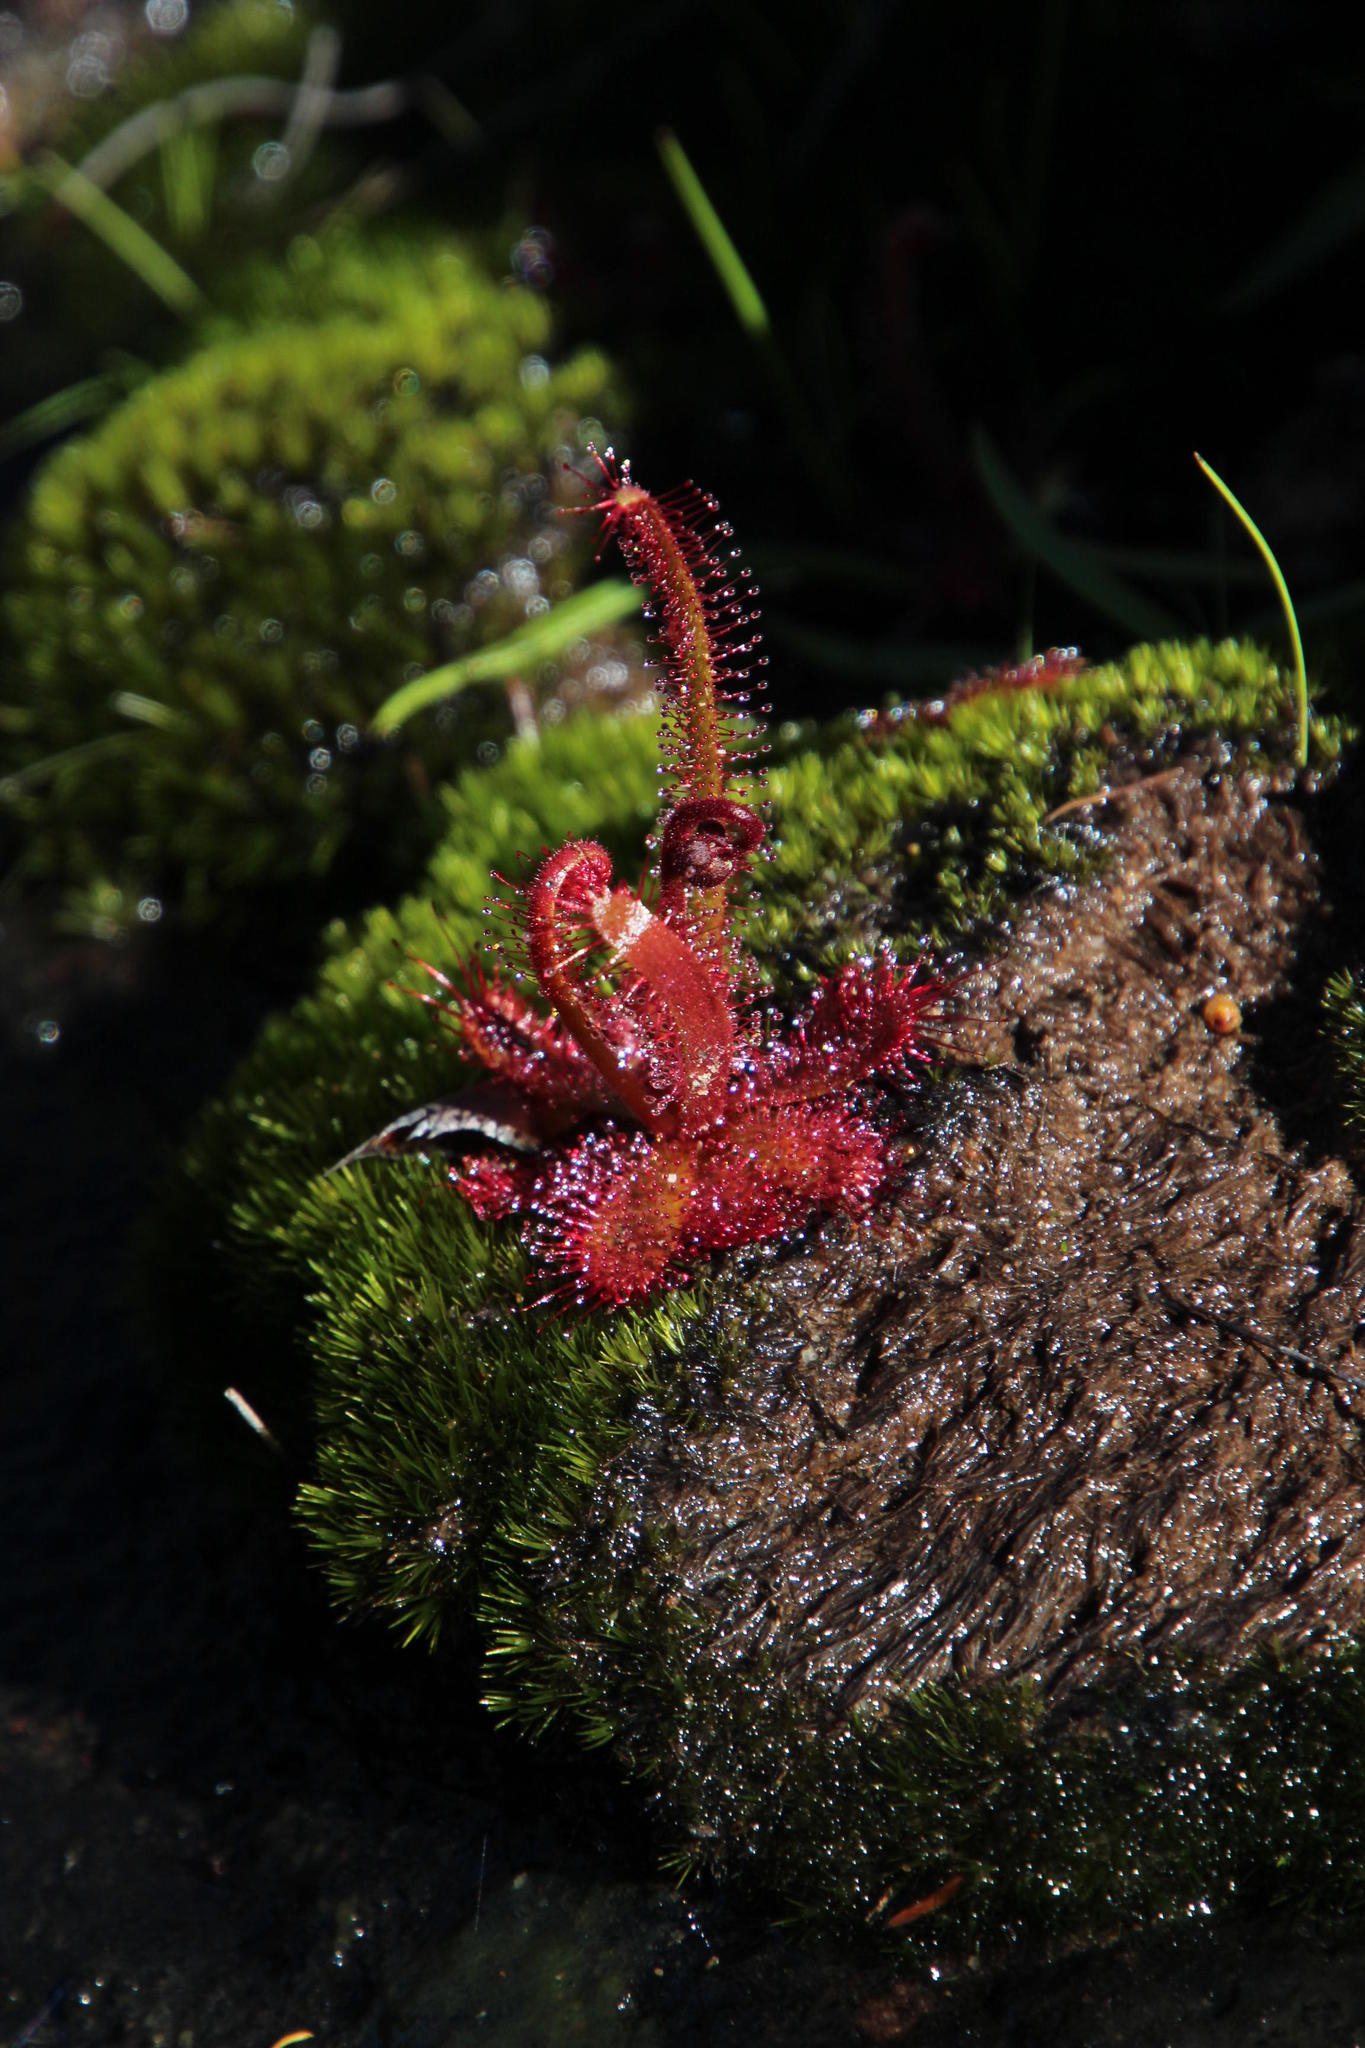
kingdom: Plantae
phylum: Tracheophyta
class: Magnoliopsida
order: Caryophyllales
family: Droseraceae
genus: Drosera
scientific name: Drosera alba
